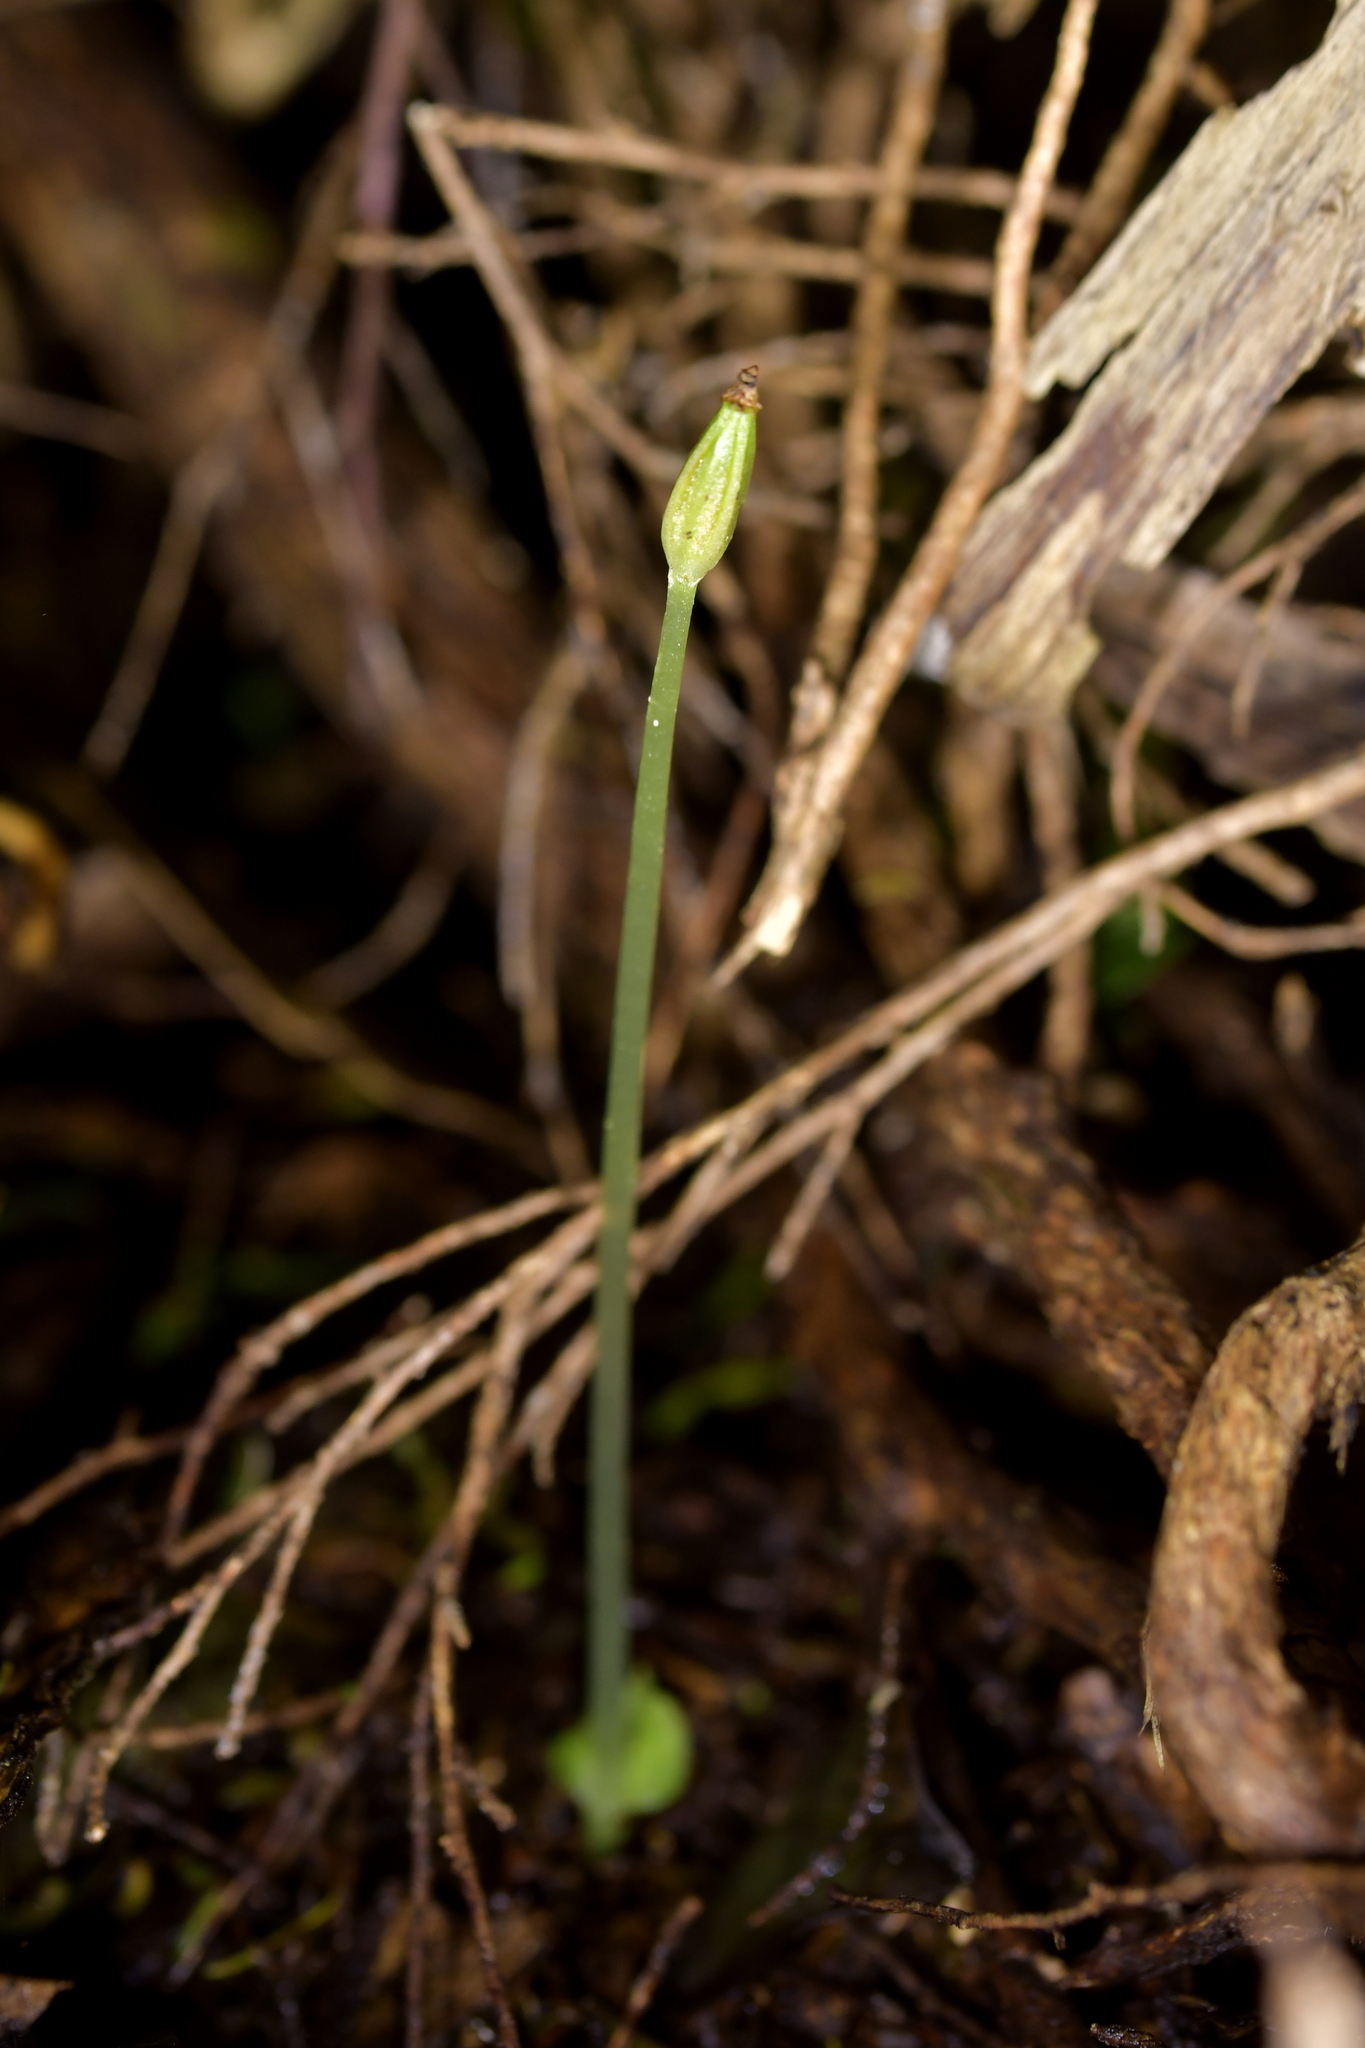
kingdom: Plantae
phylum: Tracheophyta
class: Liliopsida
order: Asparagales
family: Orchidaceae
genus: Corybas
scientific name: Corybas cheesemanii
